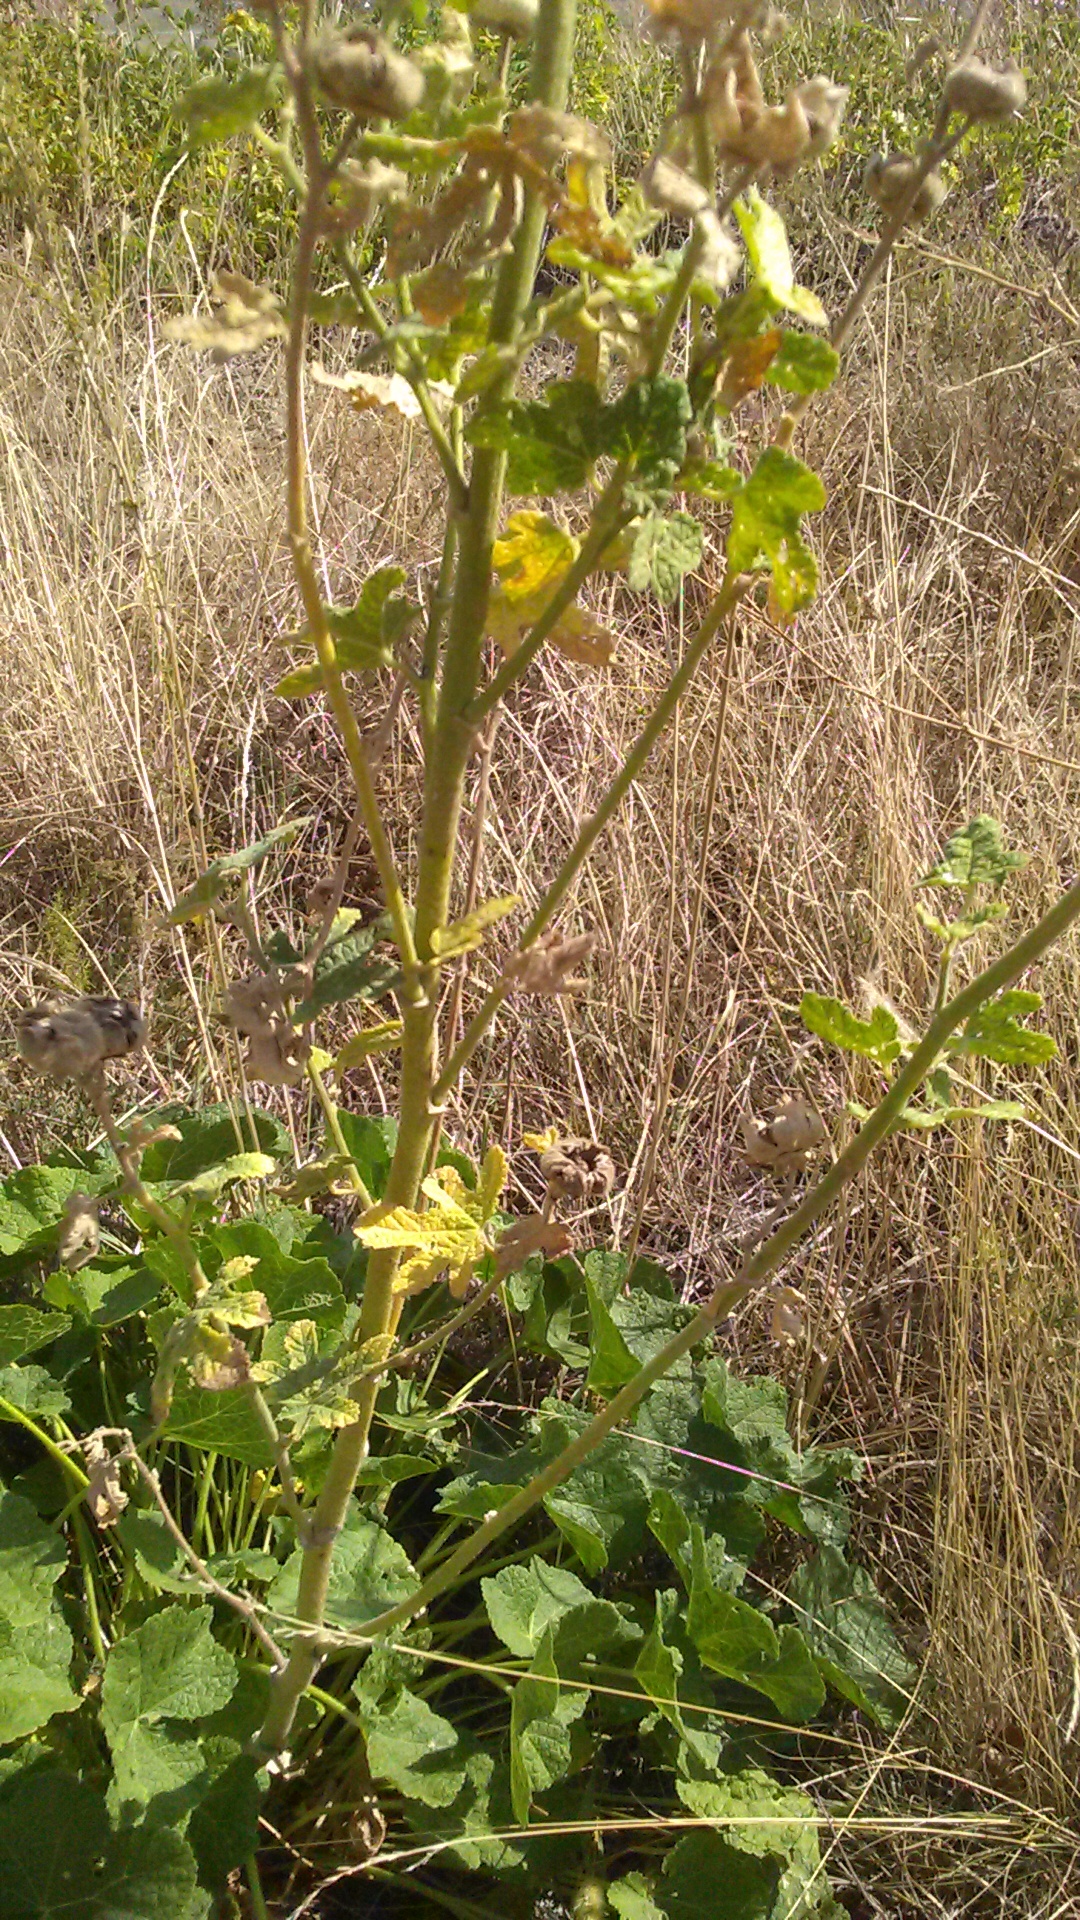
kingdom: Plantae
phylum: Tracheophyta
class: Magnoliopsida
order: Malvales
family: Malvaceae
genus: Alcea
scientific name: Alcea rugosa
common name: Russian hollyhock
